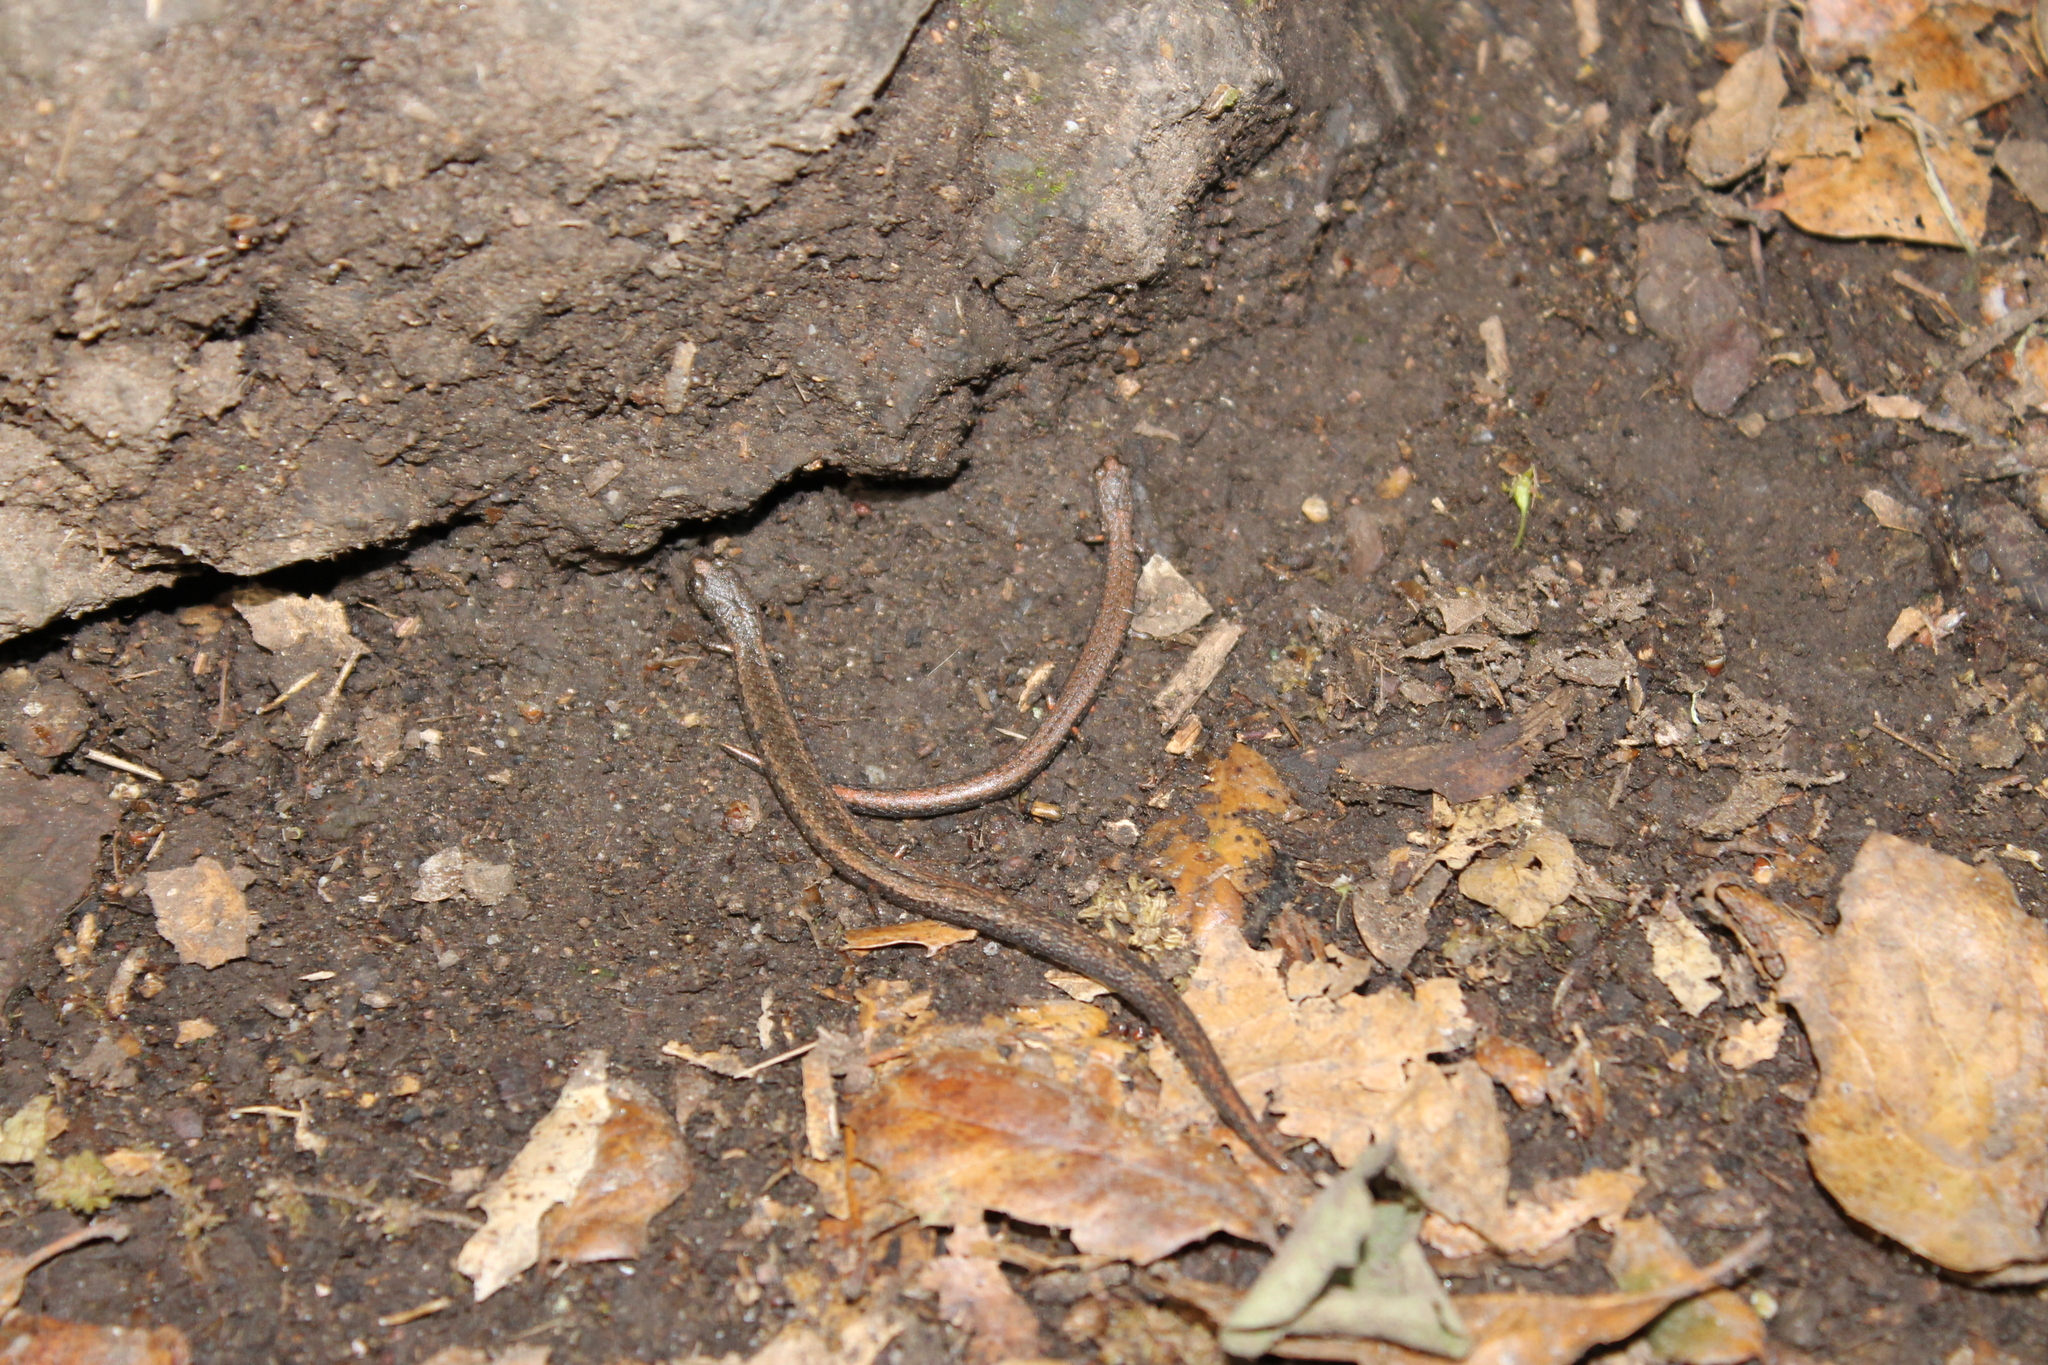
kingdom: Animalia
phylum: Chordata
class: Amphibia
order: Caudata
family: Plethodontidae
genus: Batrachoseps
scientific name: Batrachoseps gavilanensis
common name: Gabilan mountains slender salamander
